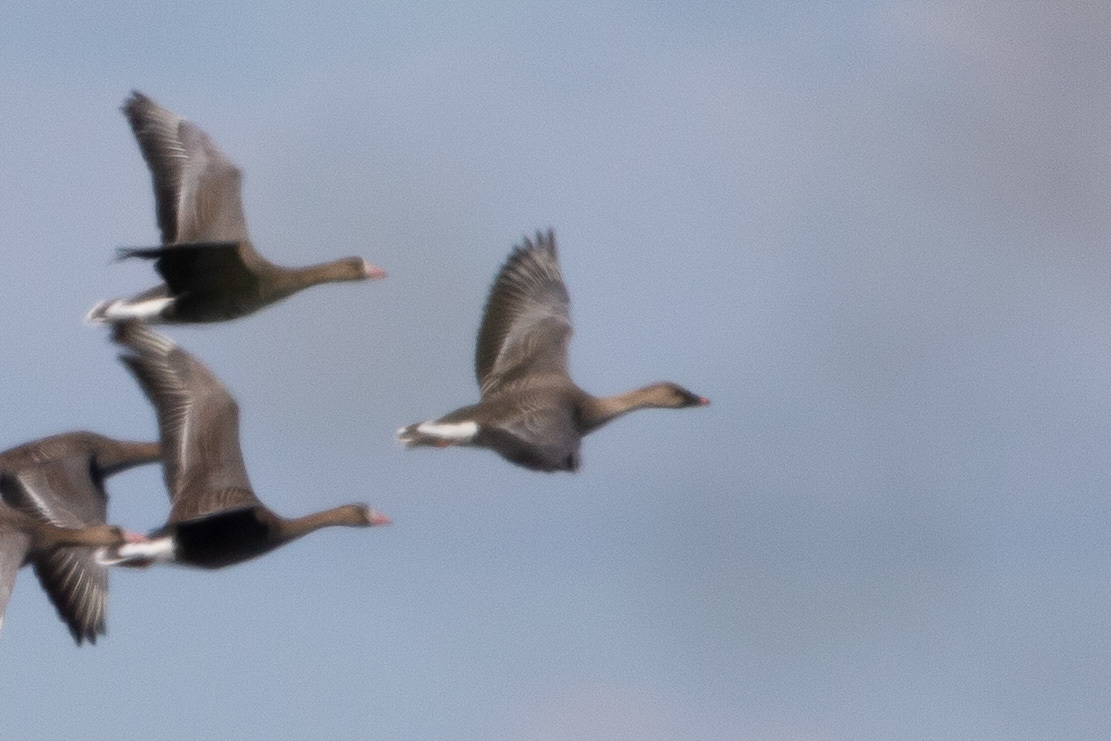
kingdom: Animalia
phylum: Chordata
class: Aves
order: Anseriformes
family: Anatidae
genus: Anser
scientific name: Anser fabalis
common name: Bean goose
